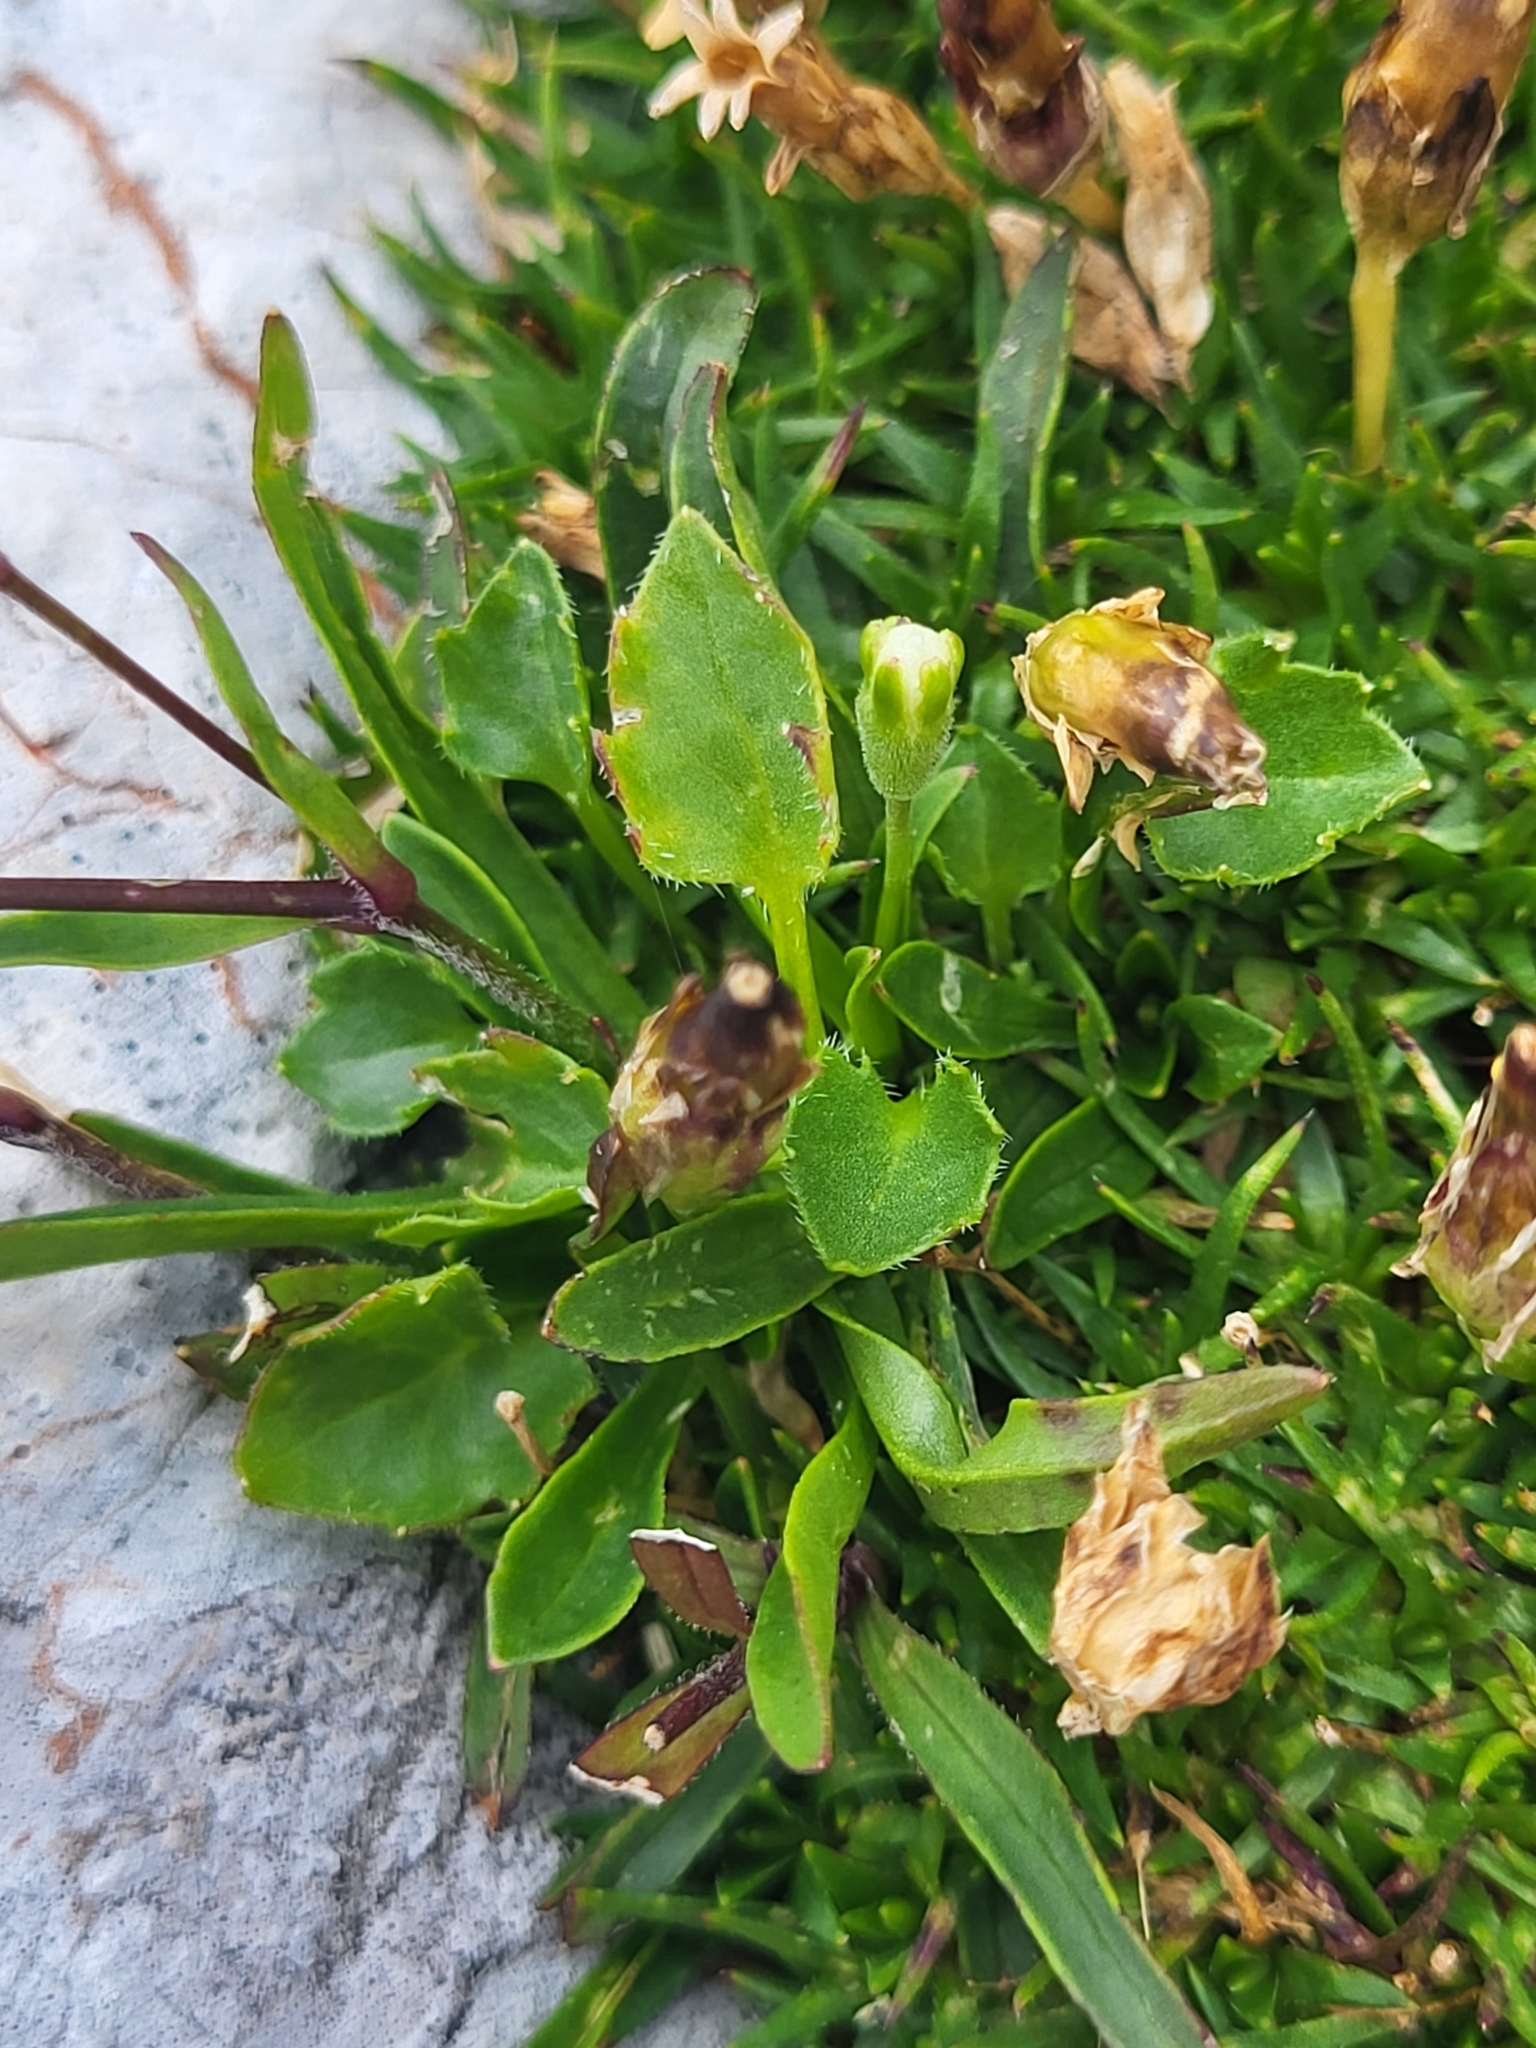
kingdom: Plantae
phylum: Tracheophyta
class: Magnoliopsida
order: Caryophyllales
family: Caryophyllaceae
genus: Heliosperma
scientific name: Heliosperma alpestre
